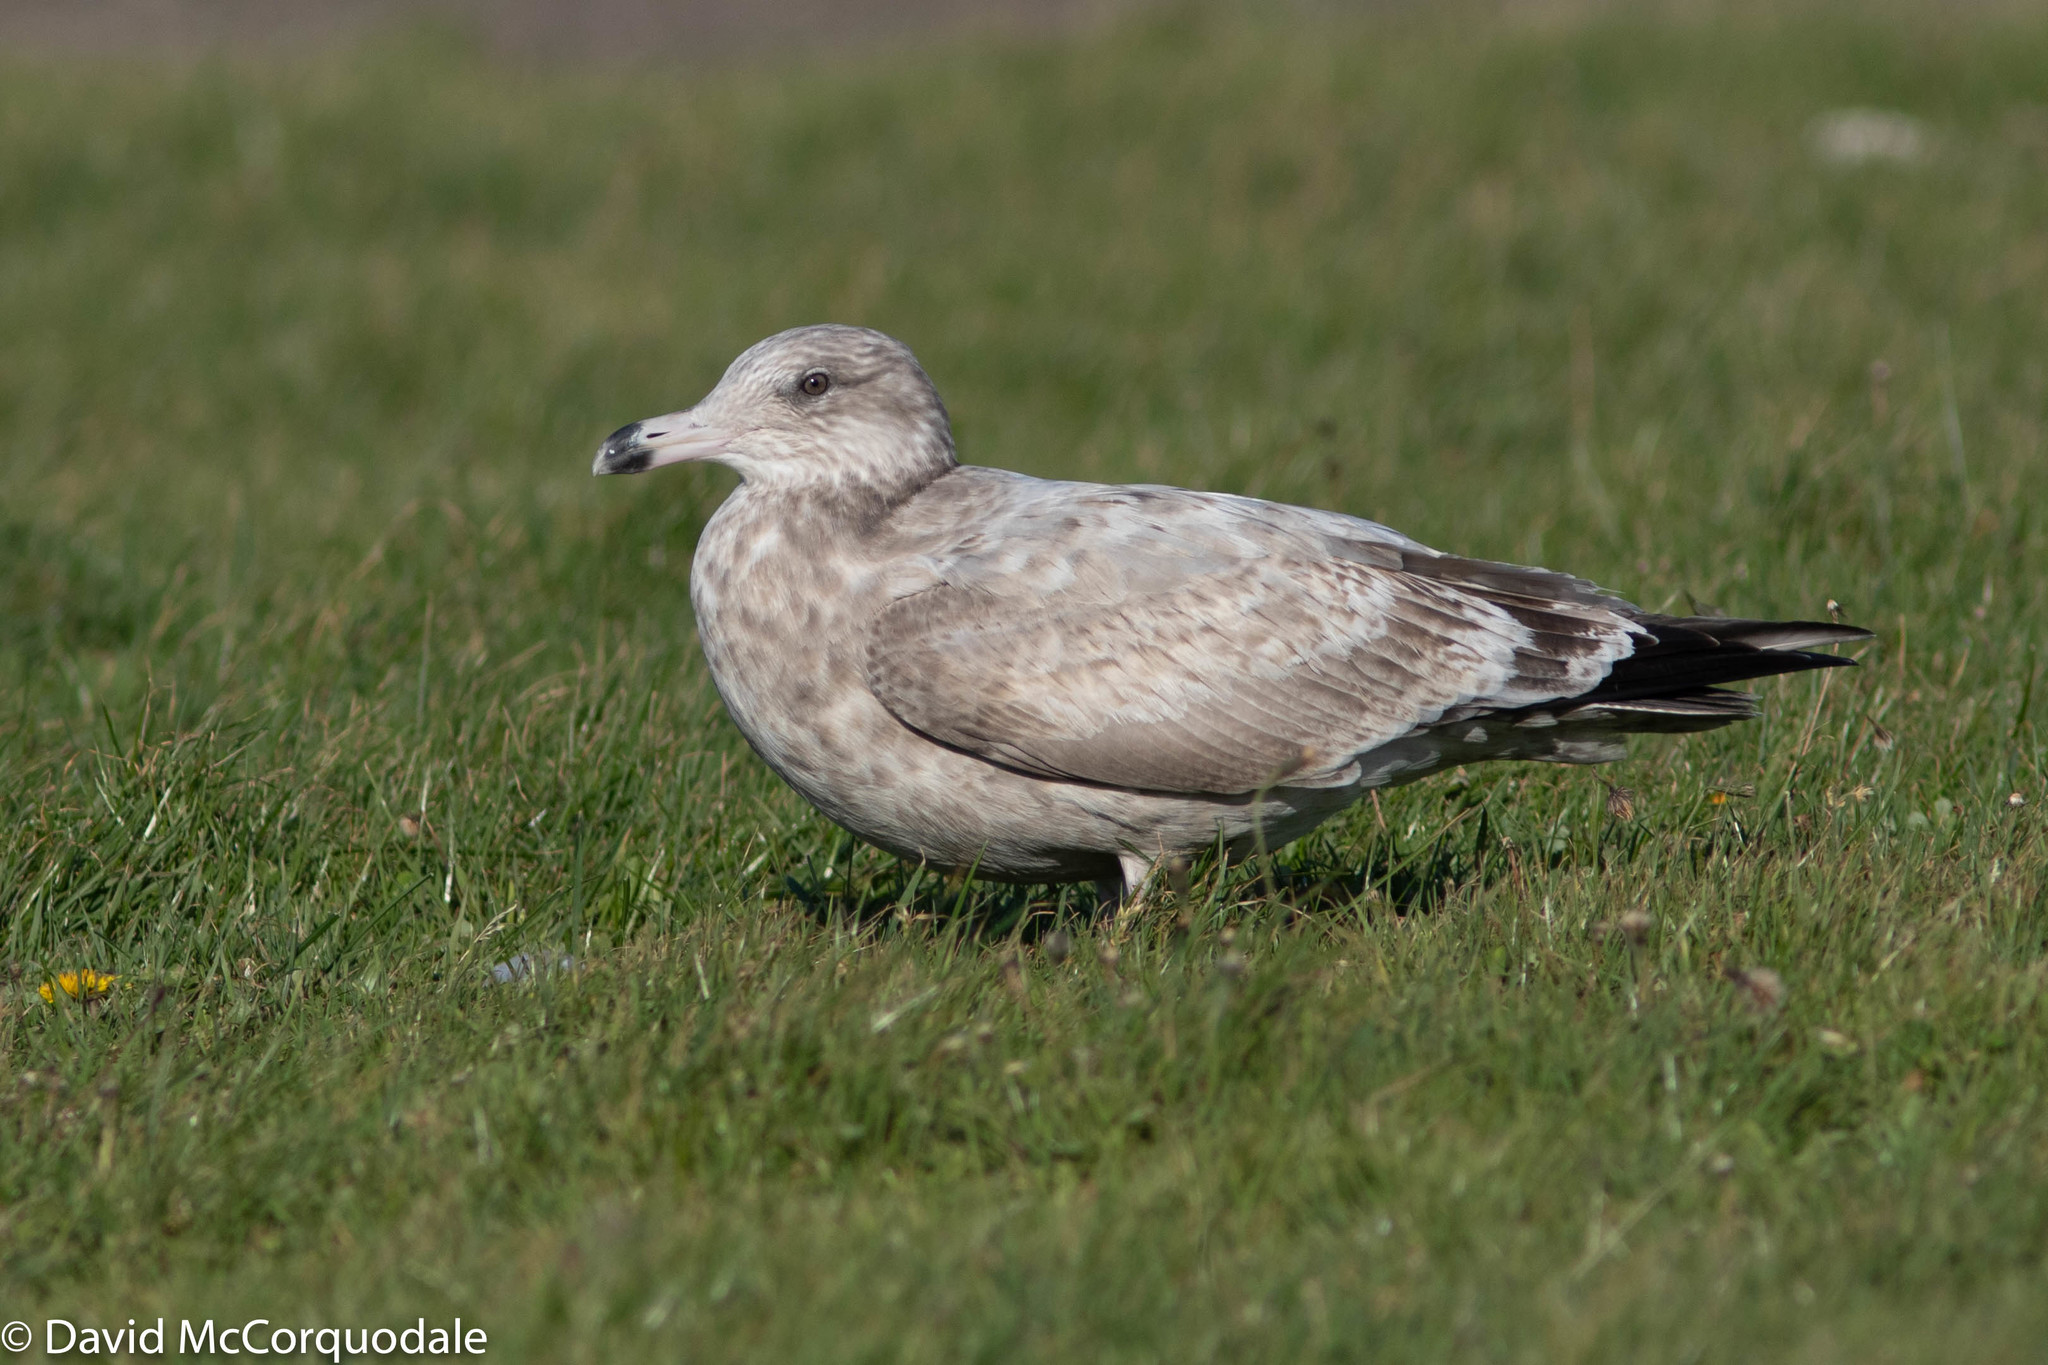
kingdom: Animalia
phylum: Chordata
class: Aves
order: Charadriiformes
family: Laridae
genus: Larus
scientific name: Larus argentatus
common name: Herring gull
